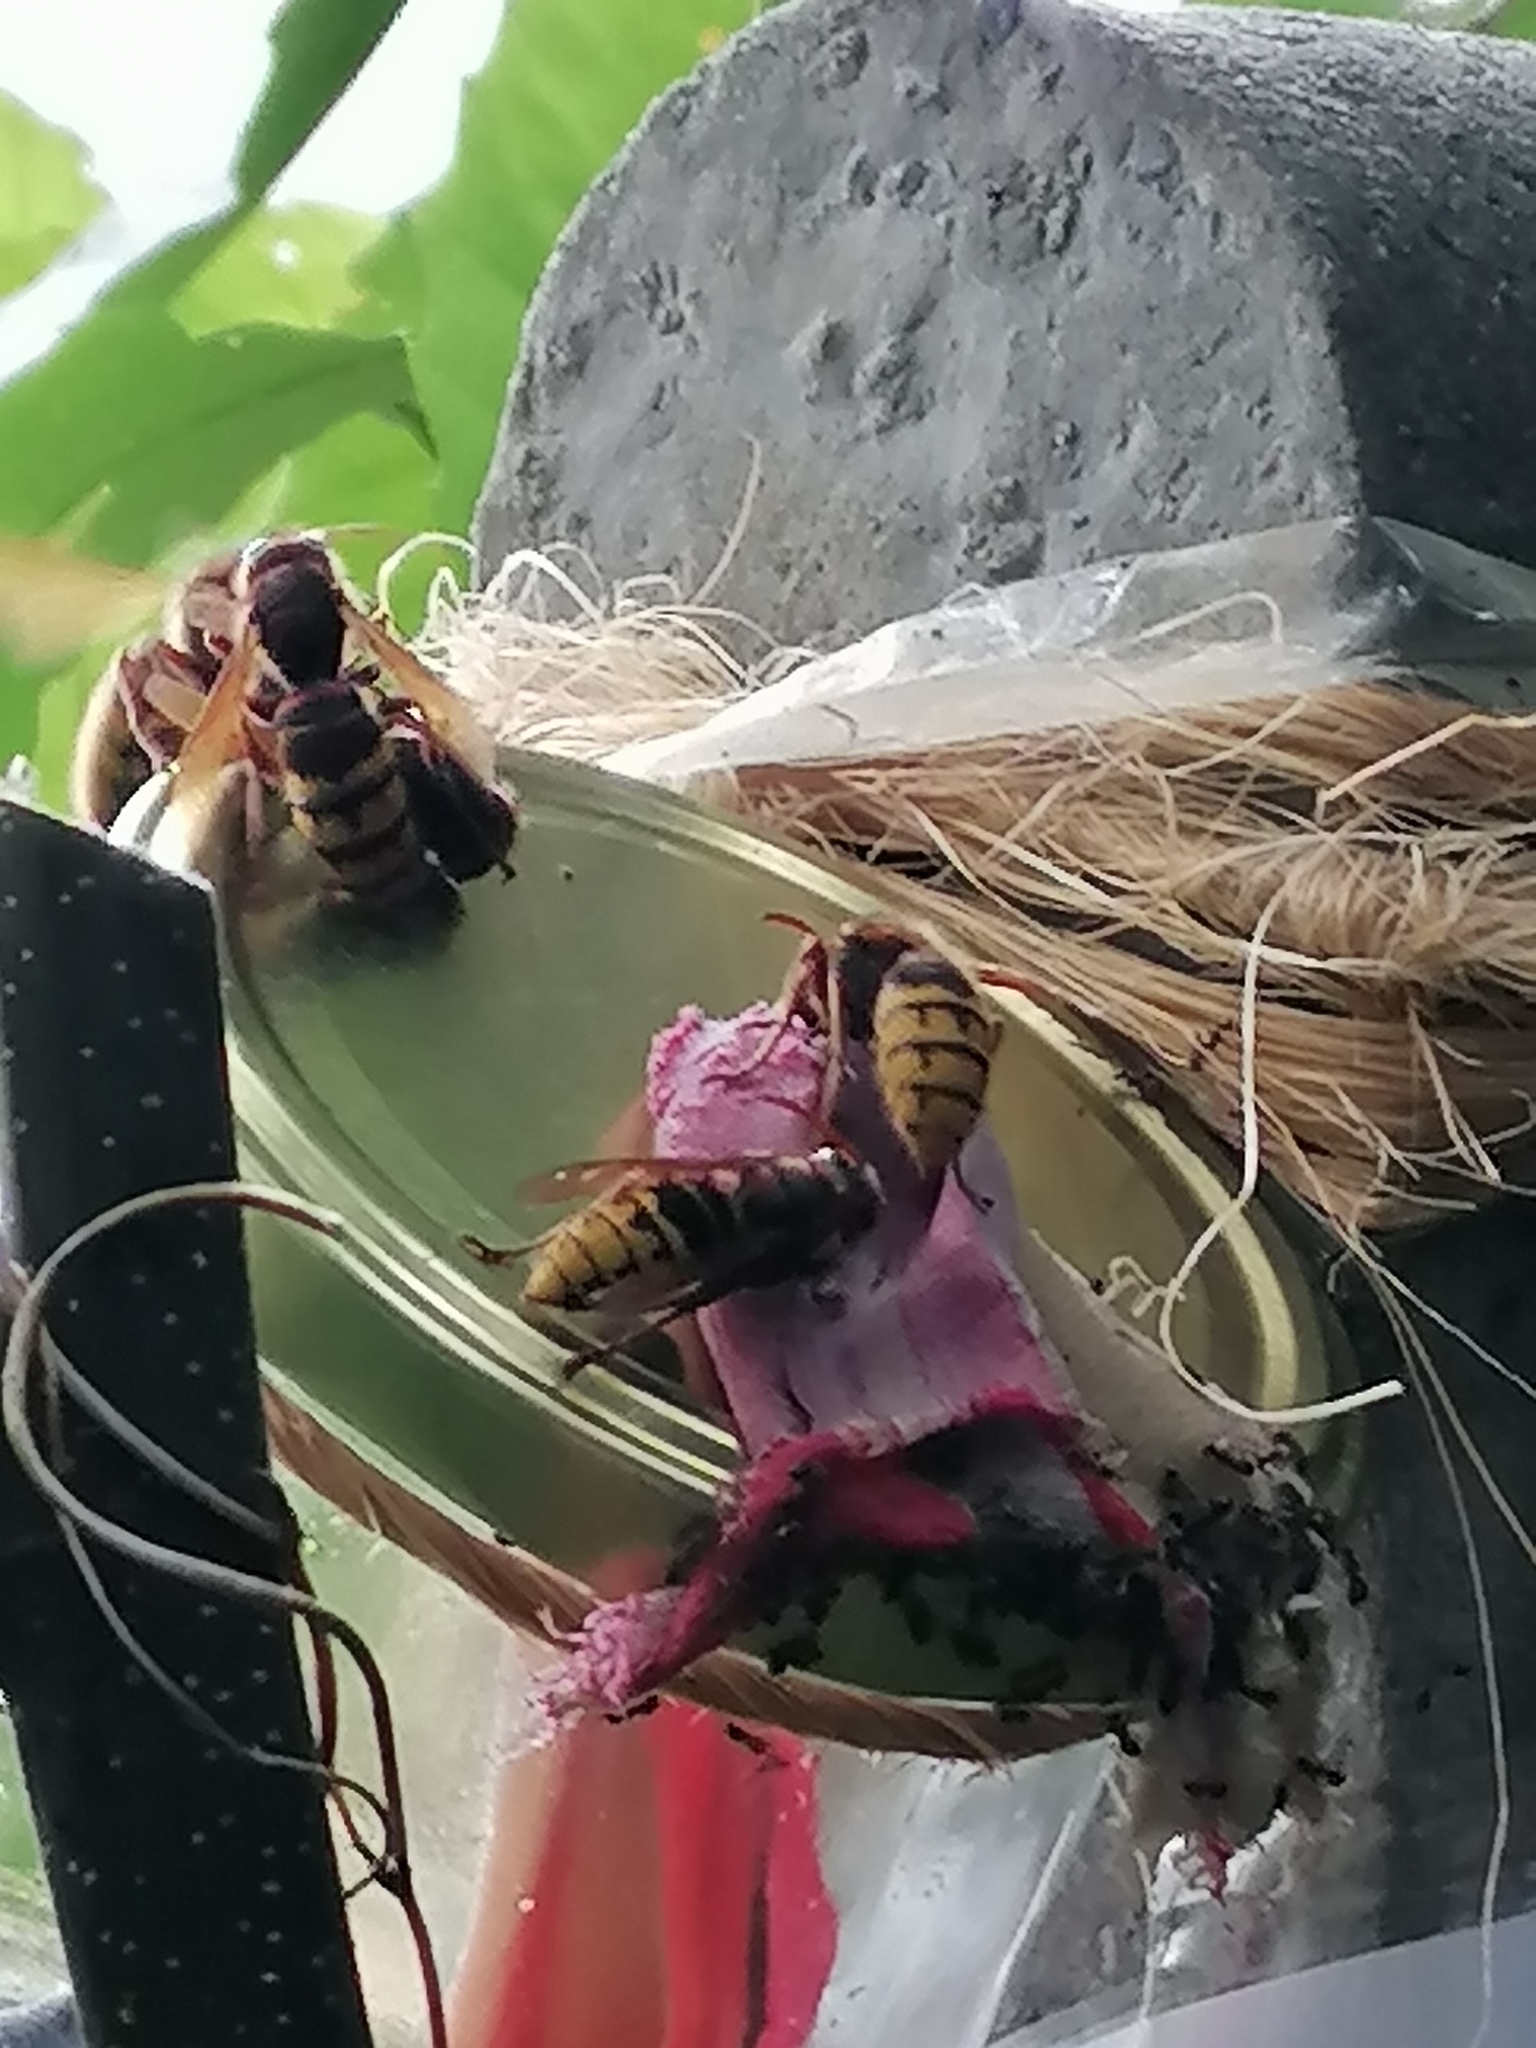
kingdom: Animalia
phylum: Arthropoda
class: Insecta
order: Hymenoptera
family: Vespidae
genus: Vespa
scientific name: Vespa crabro
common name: Hornet
